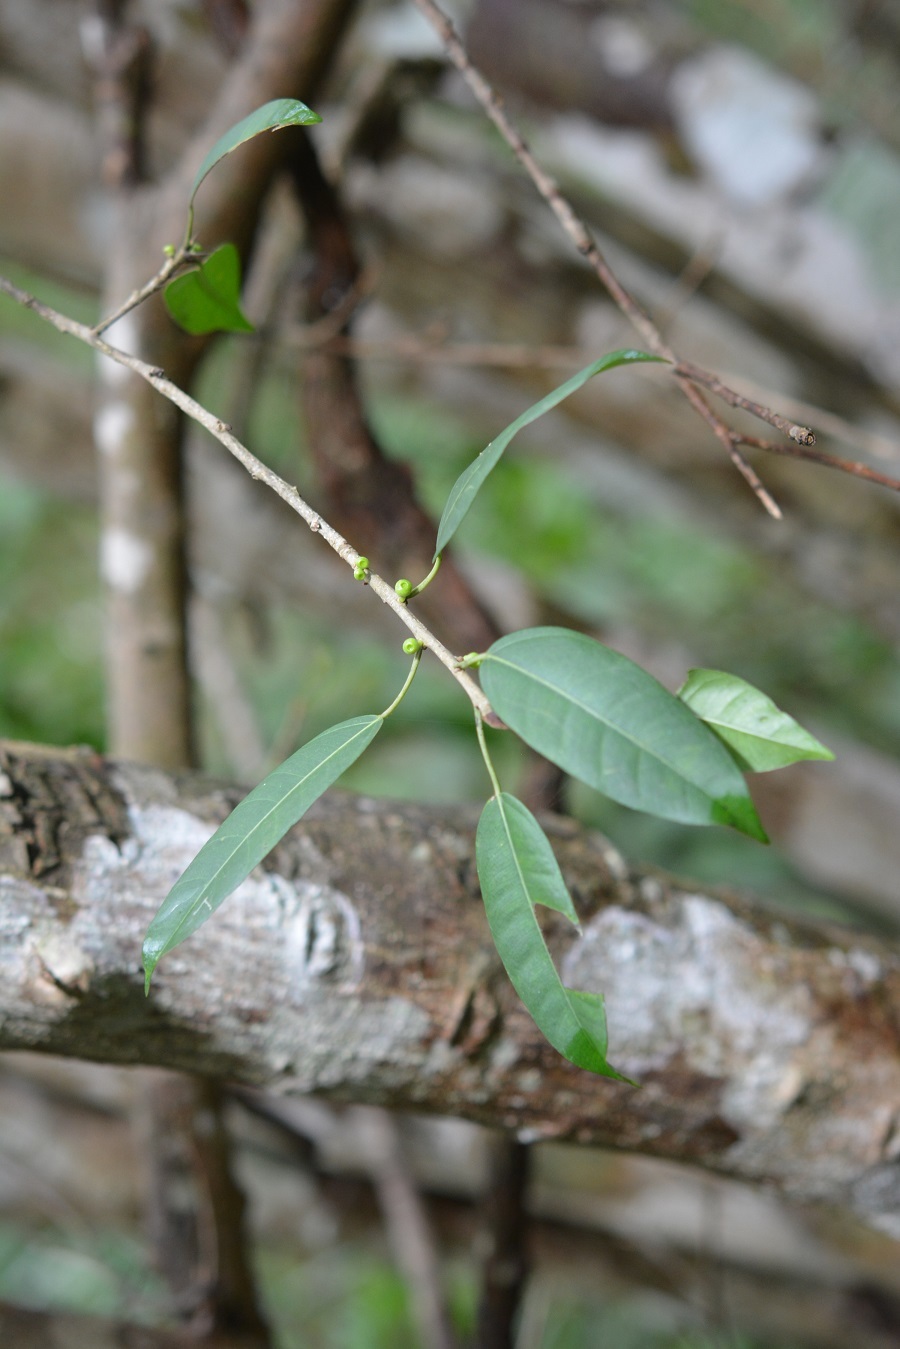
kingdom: Plantae
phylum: Tracheophyta
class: Magnoliopsida
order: Rosales
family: Moraceae
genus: Ficus
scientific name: Ficus pertusa
